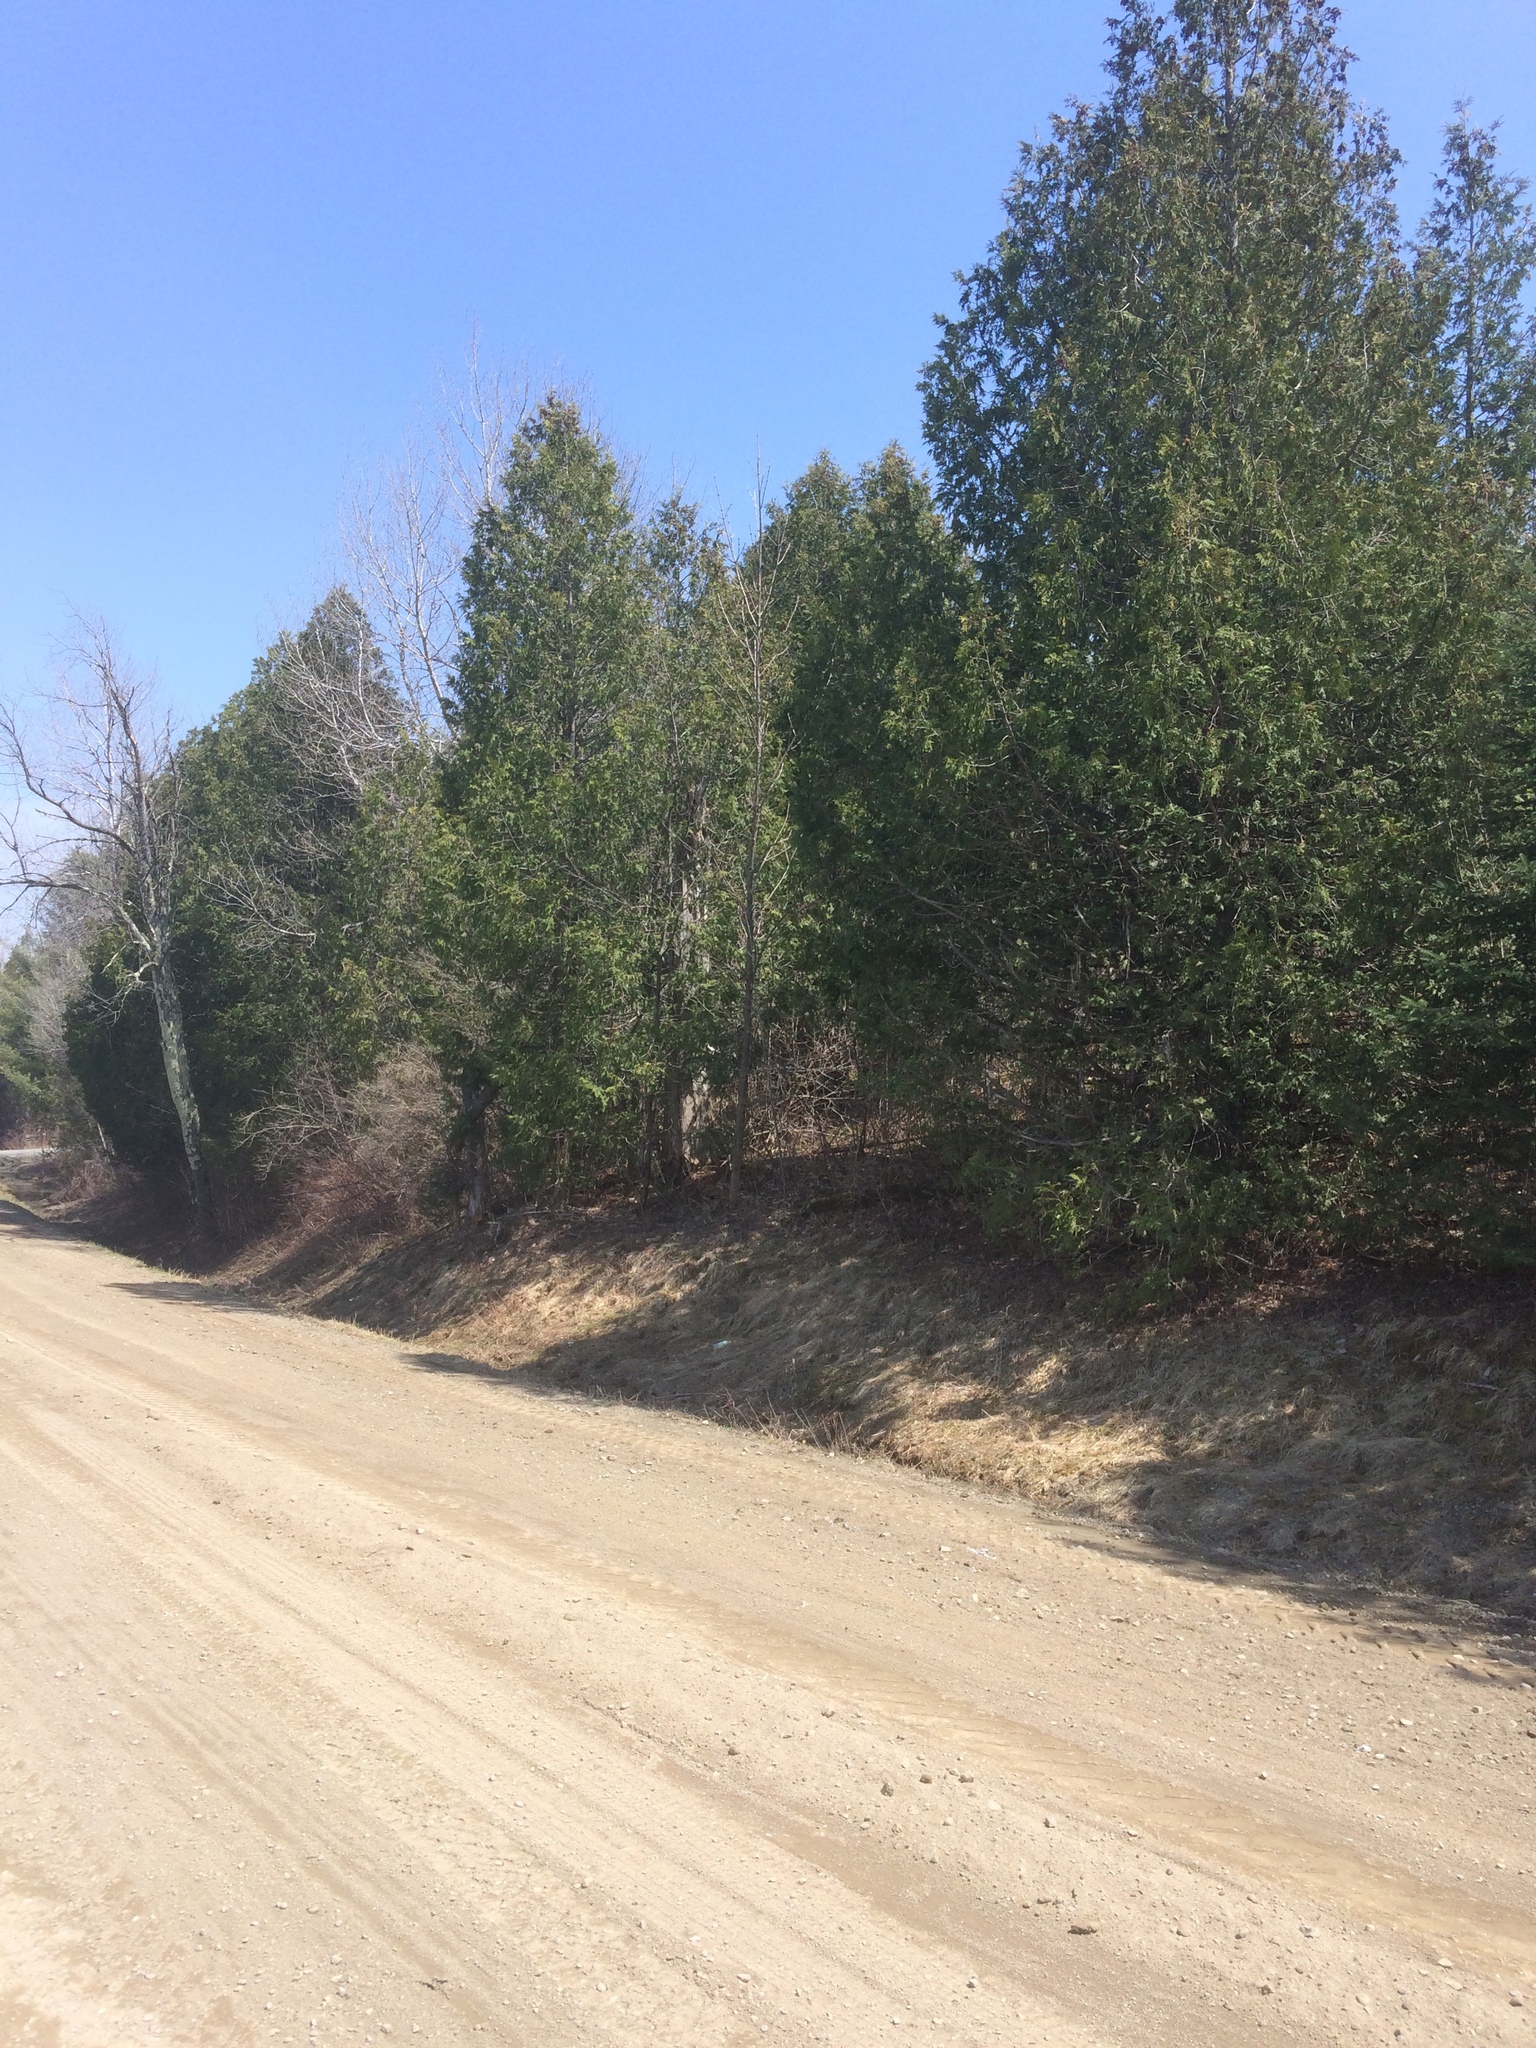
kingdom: Plantae
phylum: Tracheophyta
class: Pinopsida
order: Pinales
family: Cupressaceae
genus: Thuja
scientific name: Thuja occidentalis
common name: Northern white-cedar
